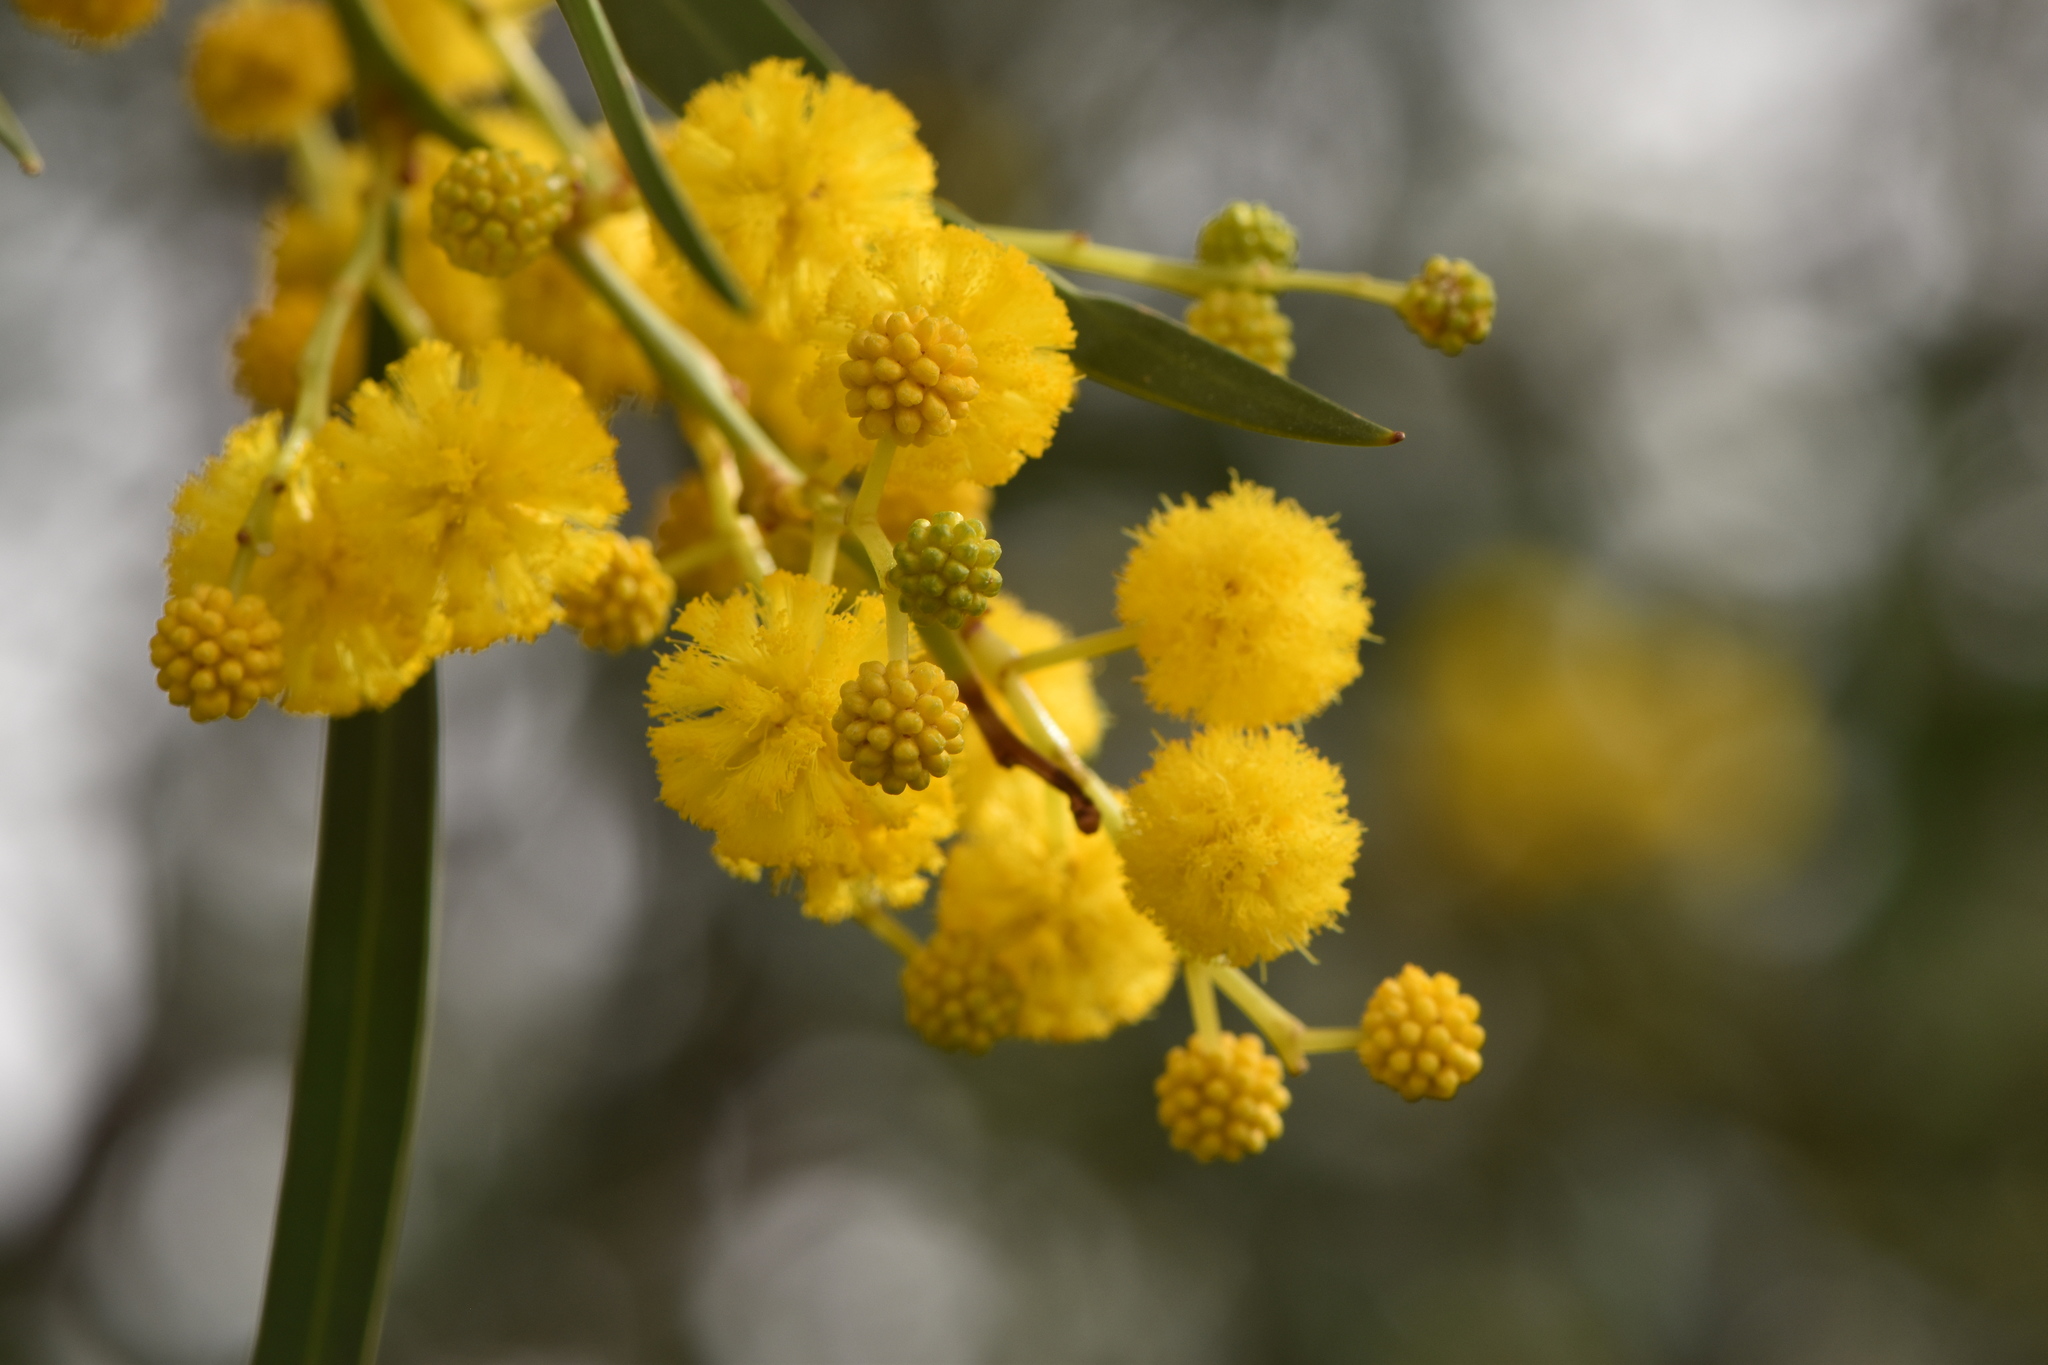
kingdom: Plantae
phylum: Tracheophyta
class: Magnoliopsida
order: Fabales
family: Fabaceae
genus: Acacia
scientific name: Acacia saligna
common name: Orange wattle
